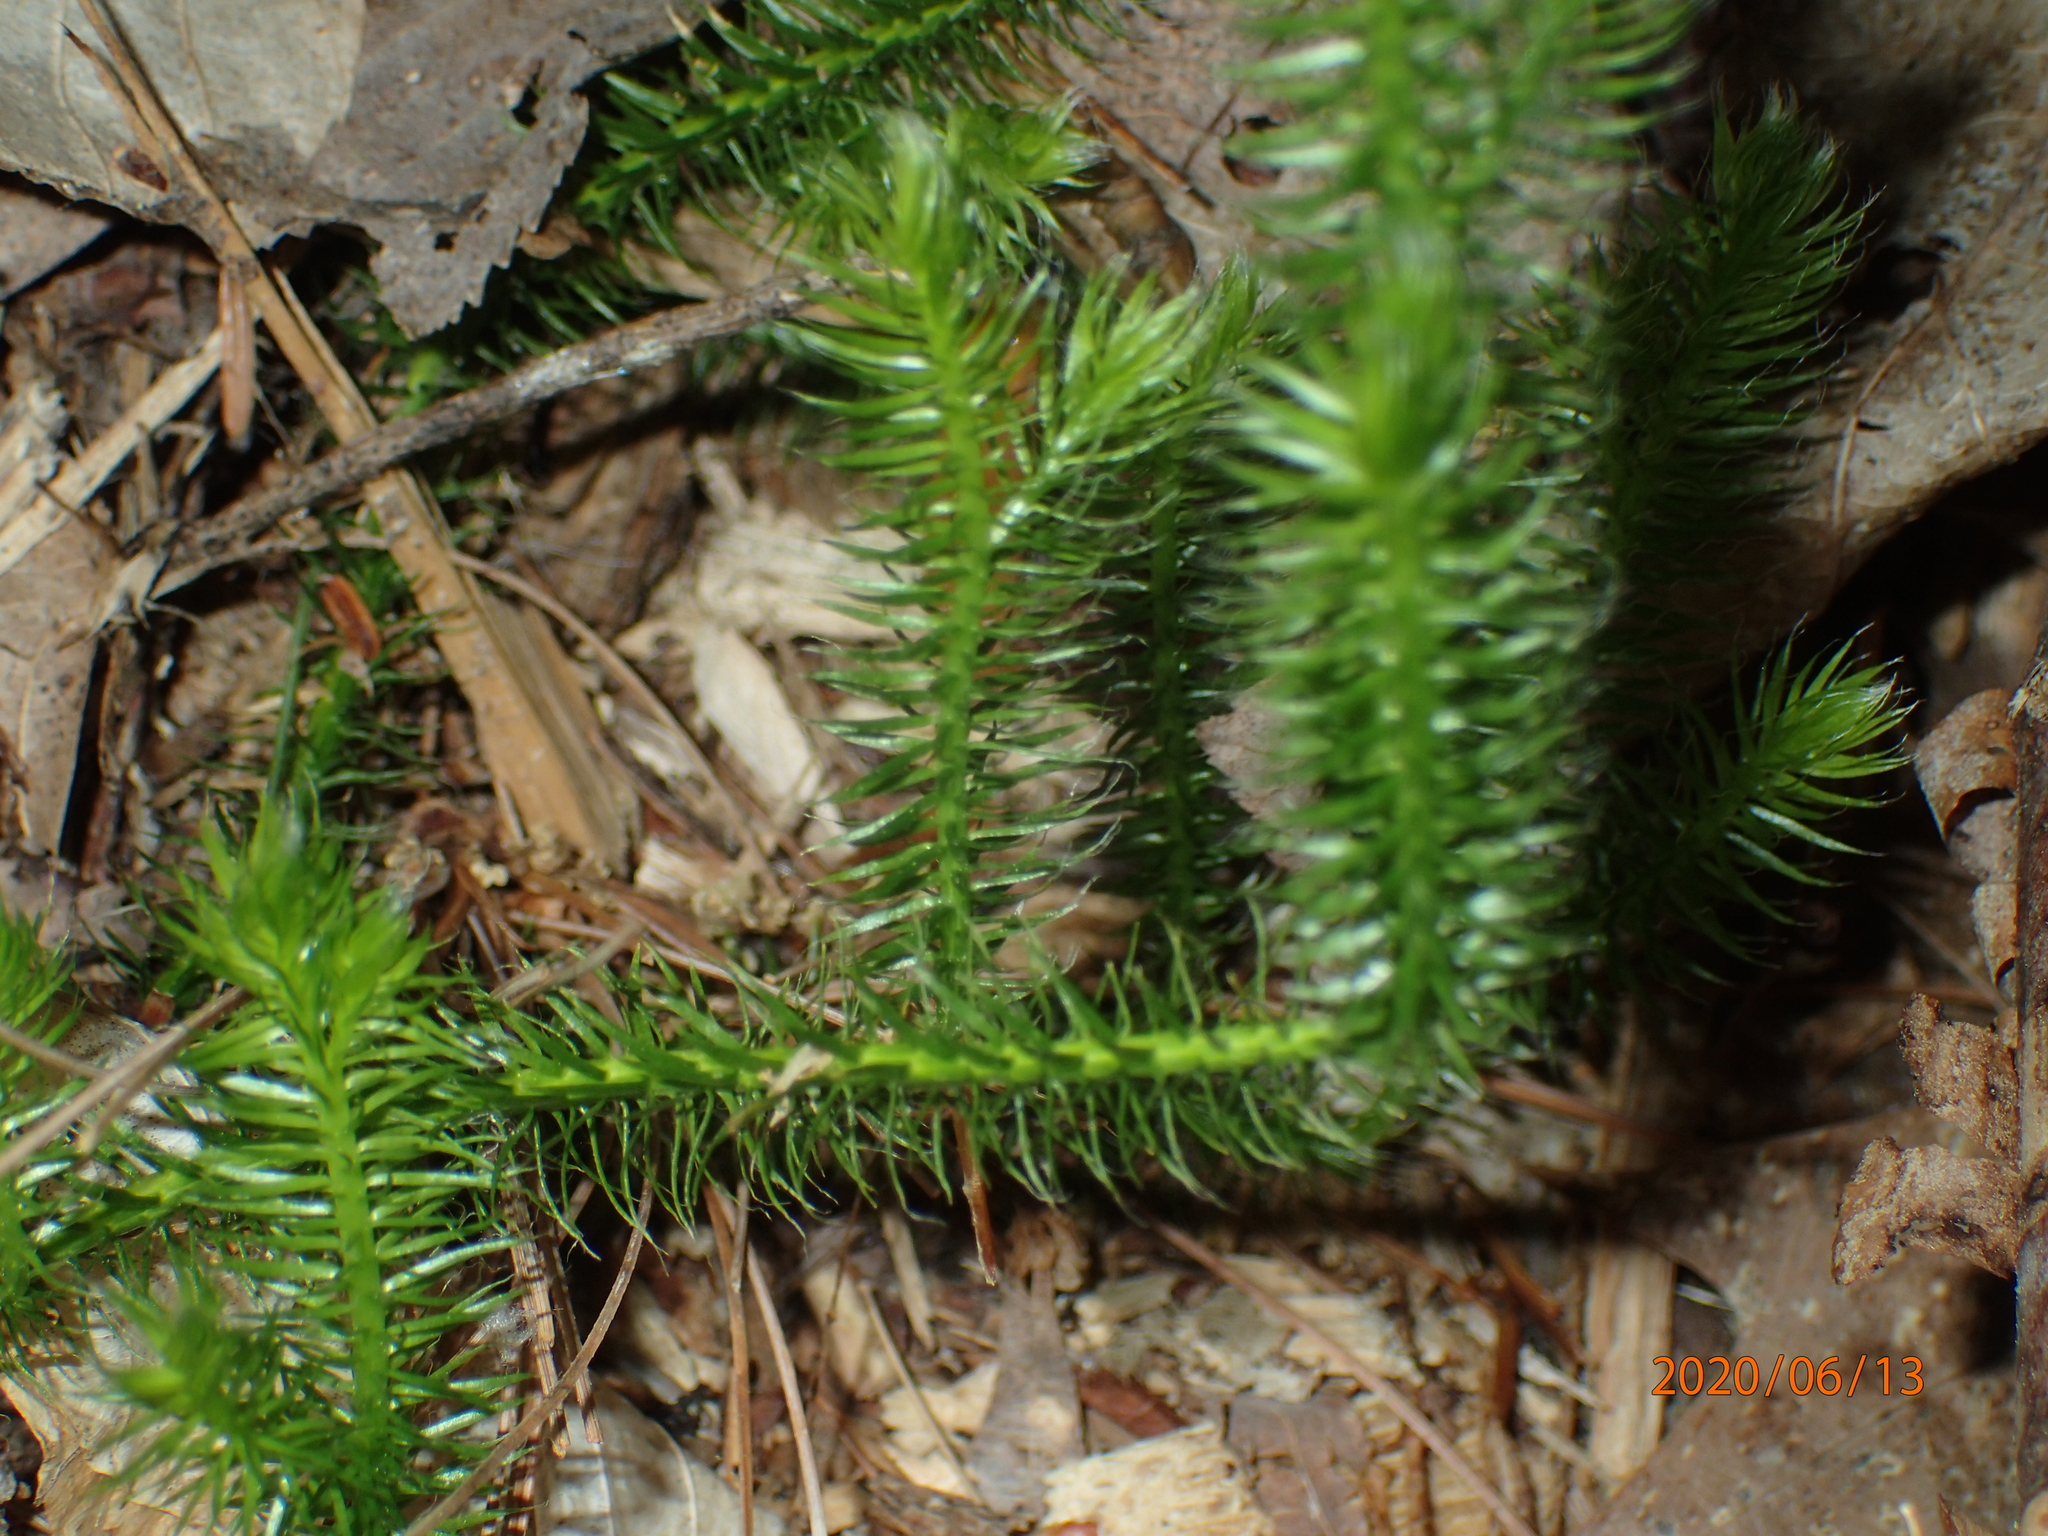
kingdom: Plantae
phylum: Tracheophyta
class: Lycopodiopsida
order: Lycopodiales
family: Lycopodiaceae
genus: Lycopodium
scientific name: Lycopodium clavatum
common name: Stag's-horn clubmoss
